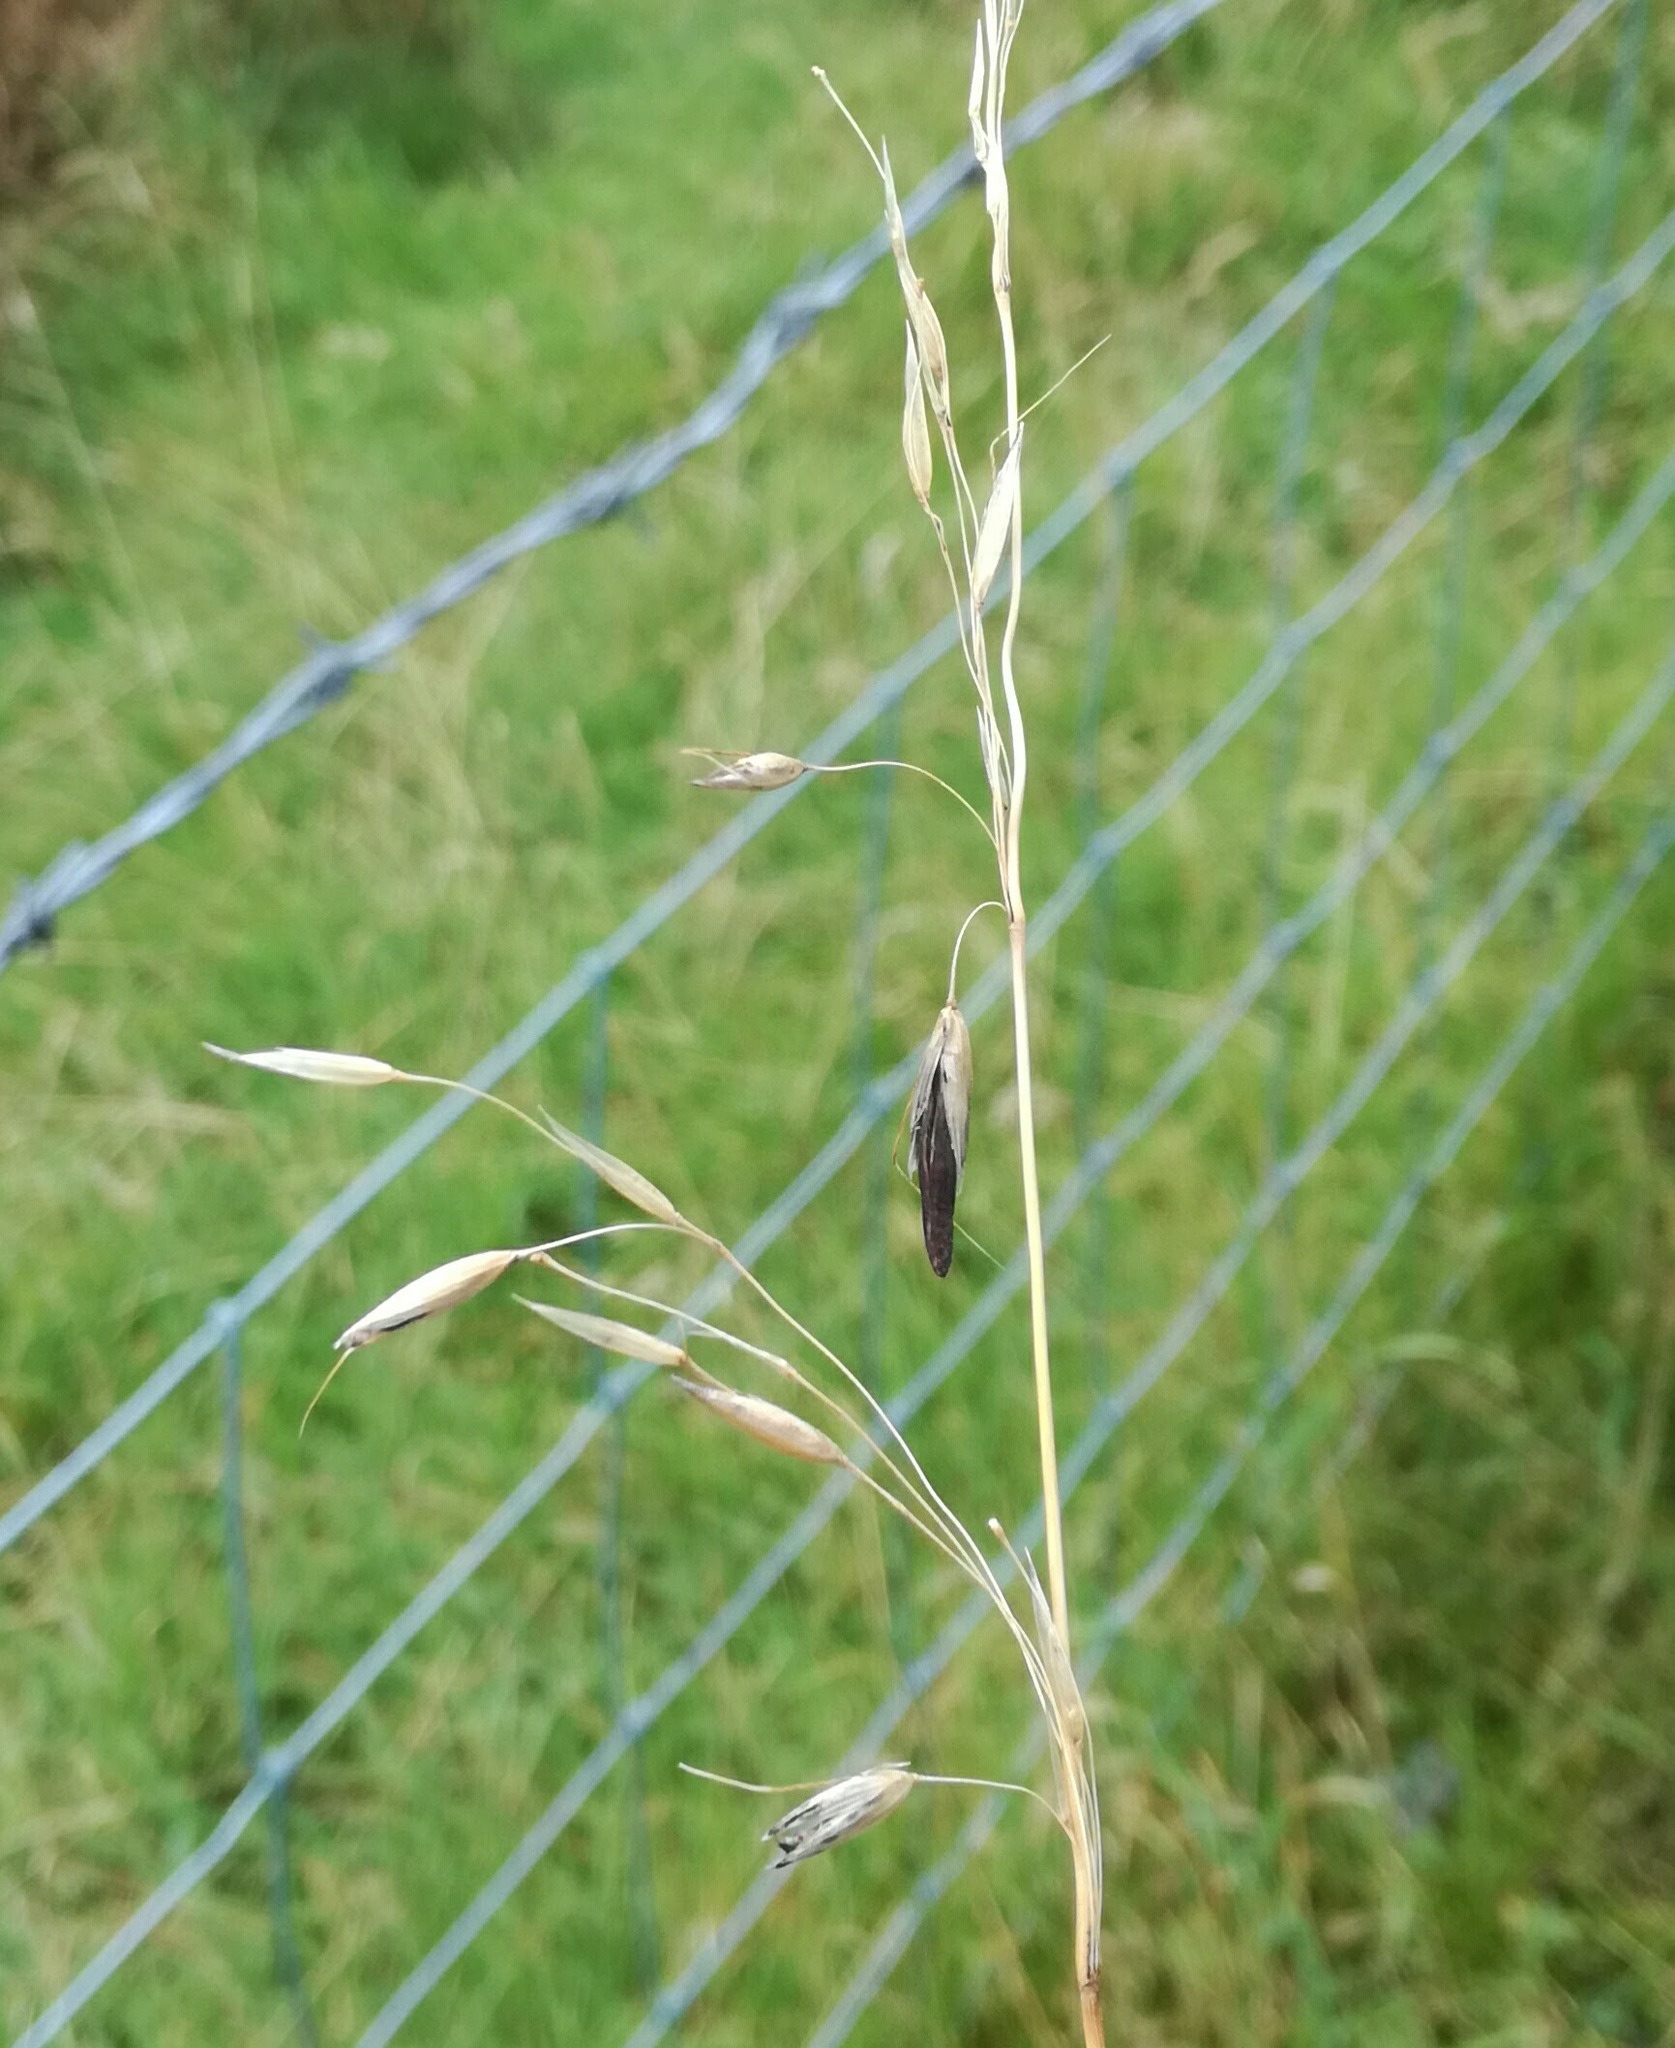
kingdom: Plantae
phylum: Tracheophyta
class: Liliopsida
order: Poales
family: Poaceae
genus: Arrhenatherum
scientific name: Arrhenatherum elatius
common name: Tall oatgrass
